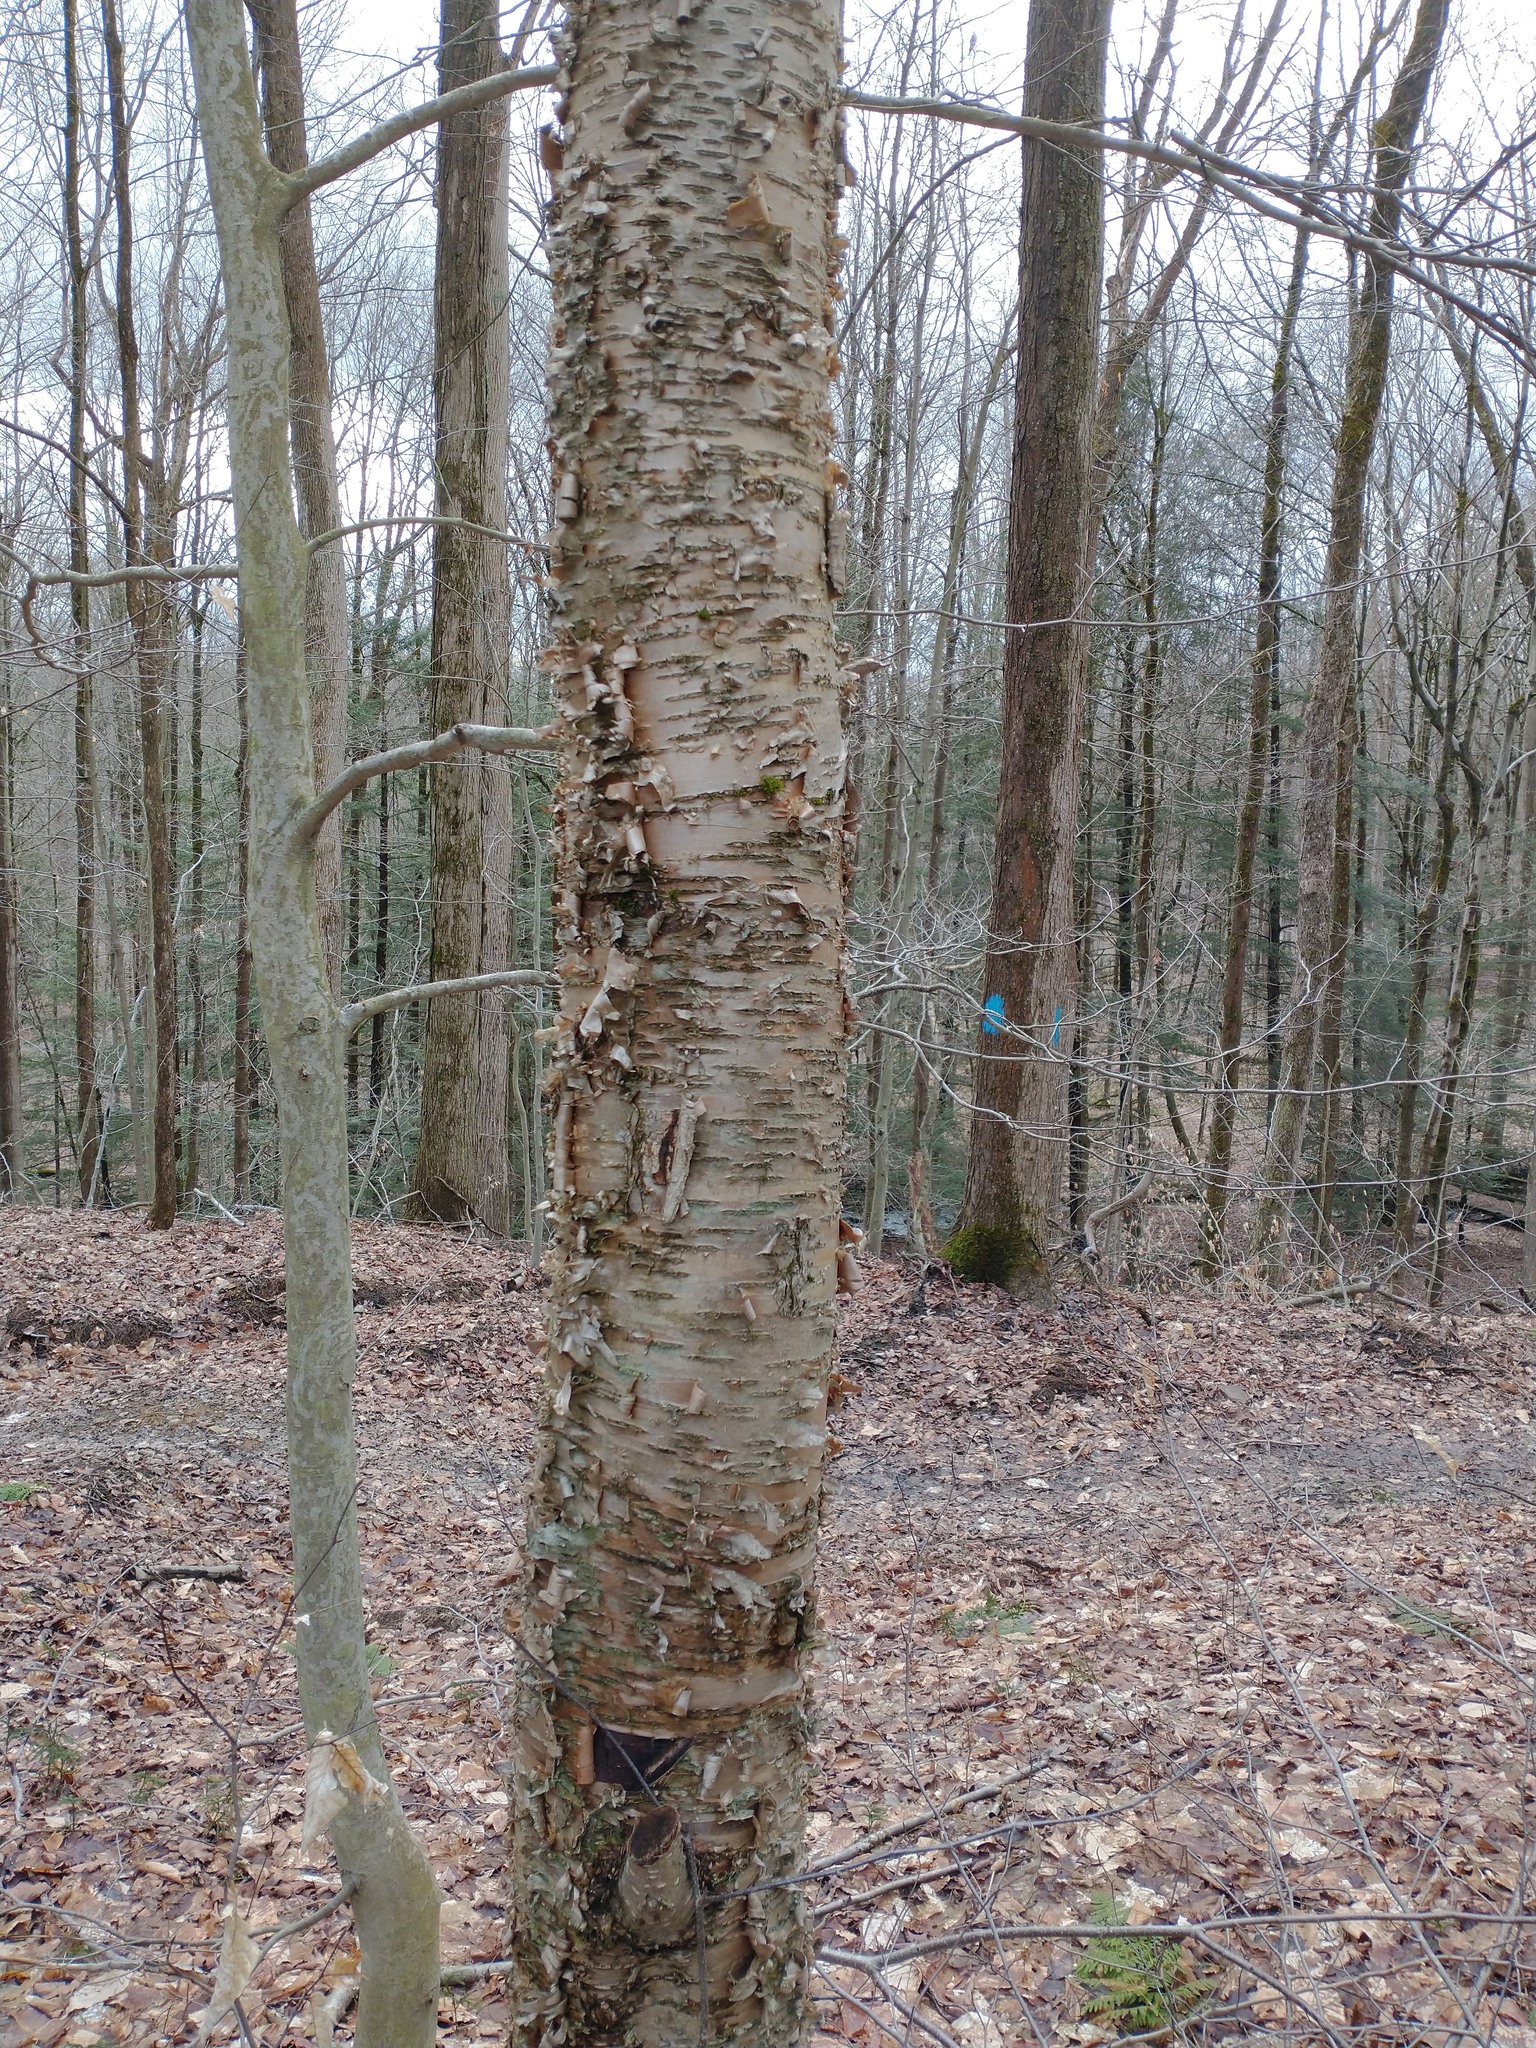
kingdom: Plantae
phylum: Tracheophyta
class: Magnoliopsida
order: Fagales
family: Betulaceae
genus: Betula
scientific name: Betula alleghaniensis
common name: Yellow birch
